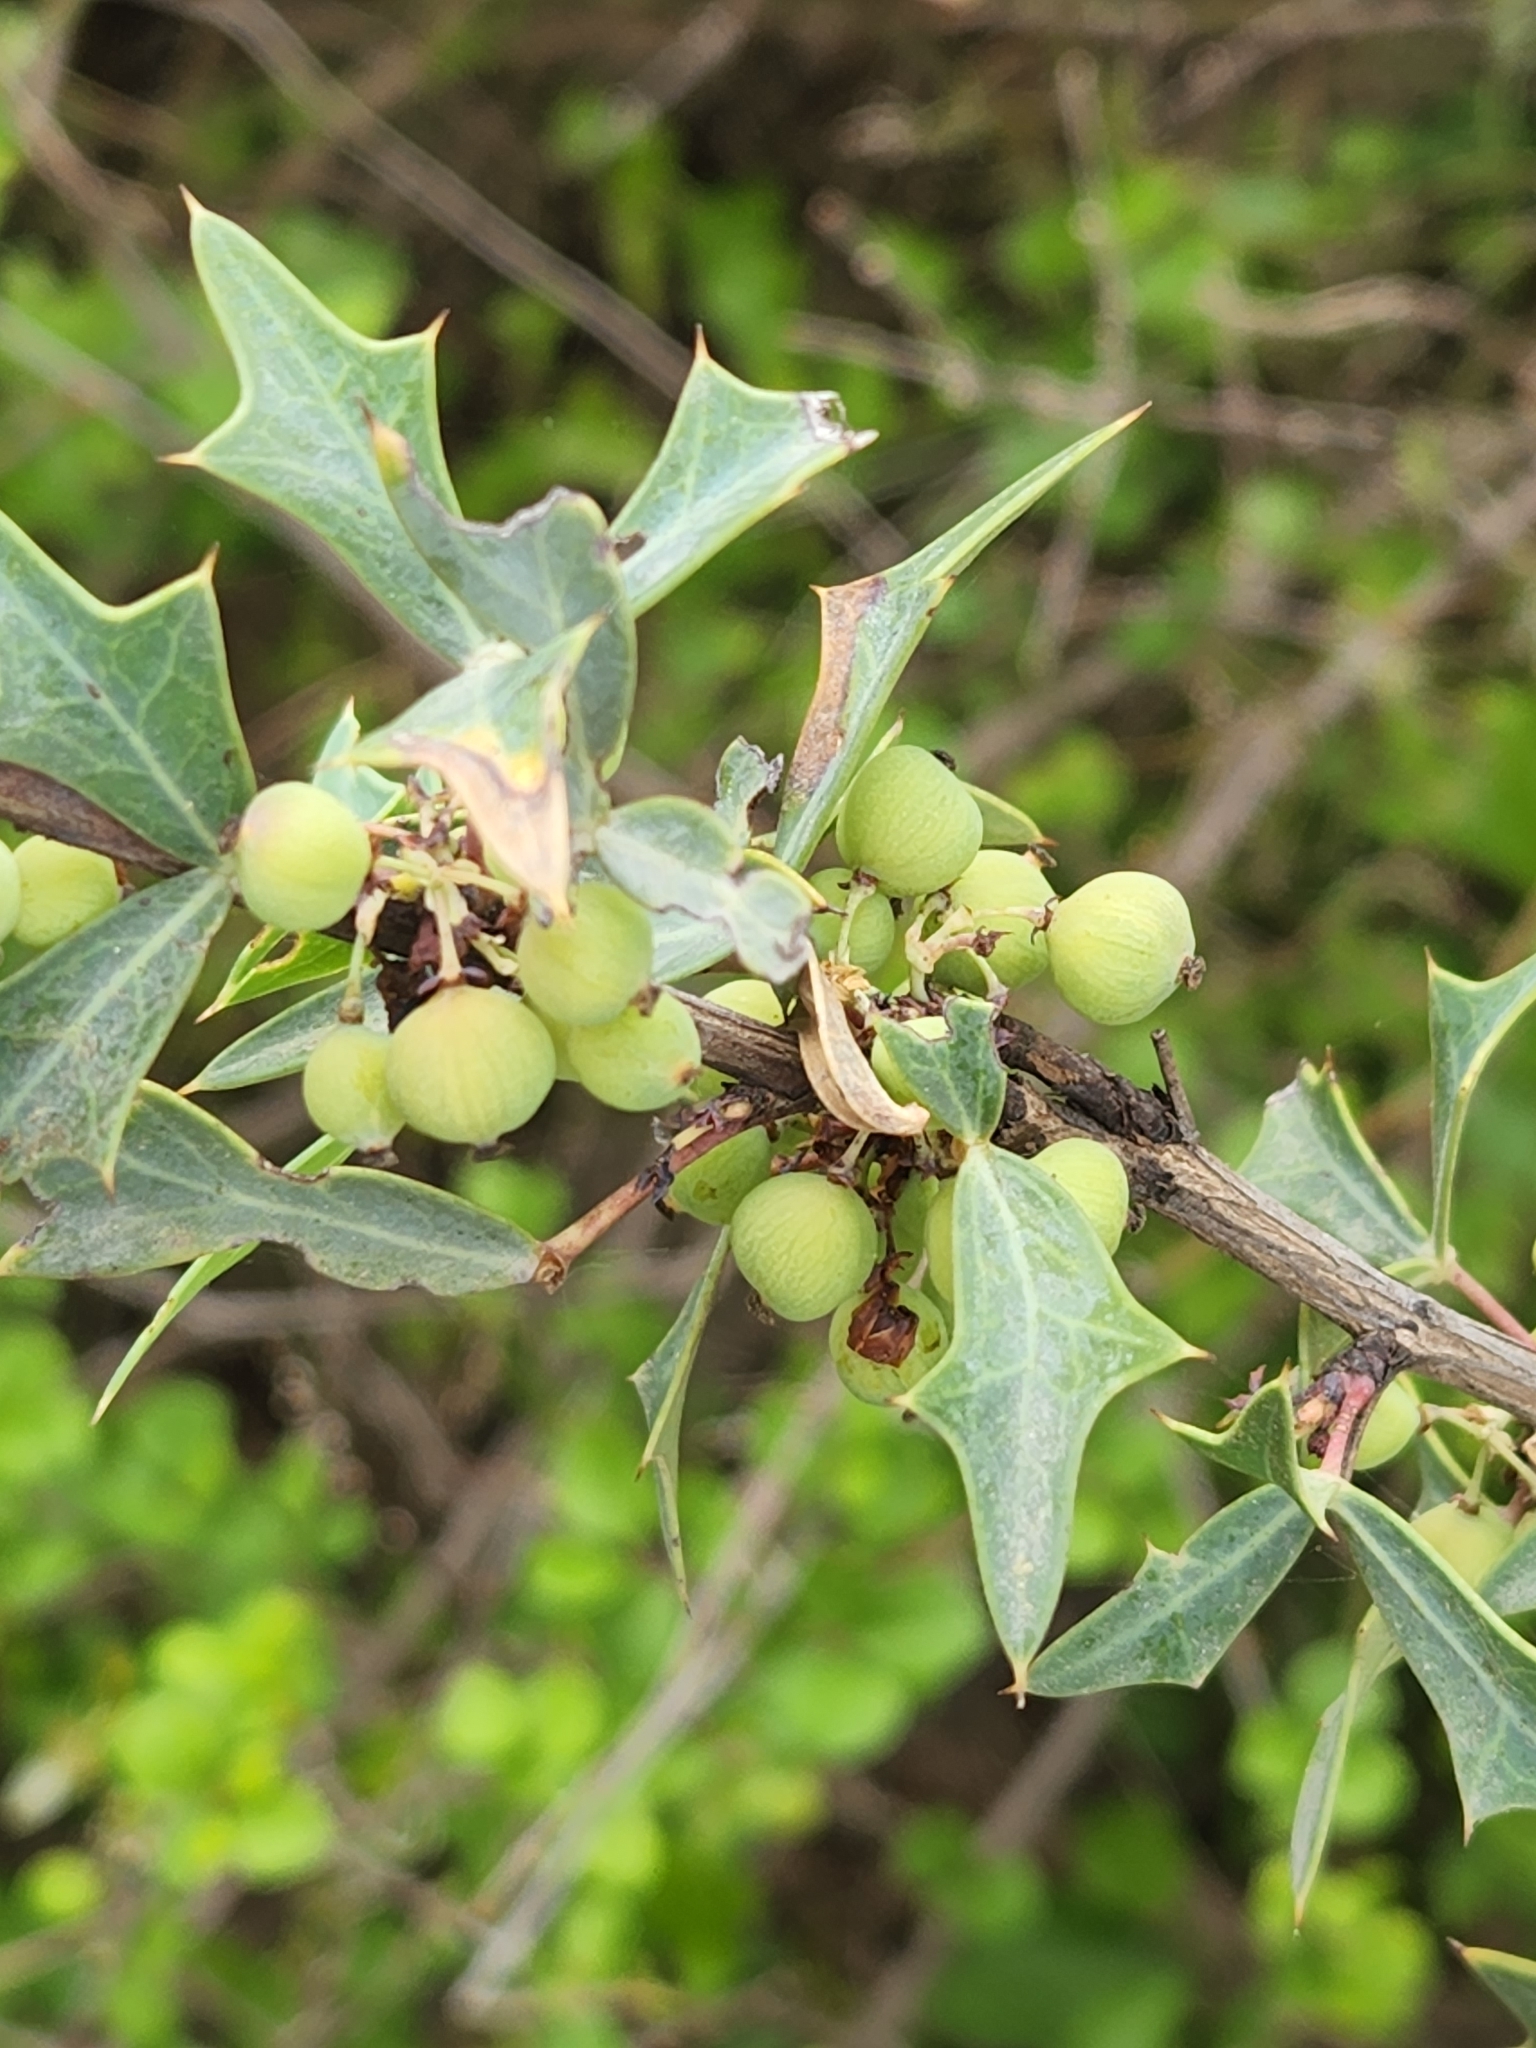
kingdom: Plantae
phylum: Tracheophyta
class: Magnoliopsida
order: Ranunculales
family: Berberidaceae
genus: Alloberberis
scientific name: Alloberberis trifoliolata
